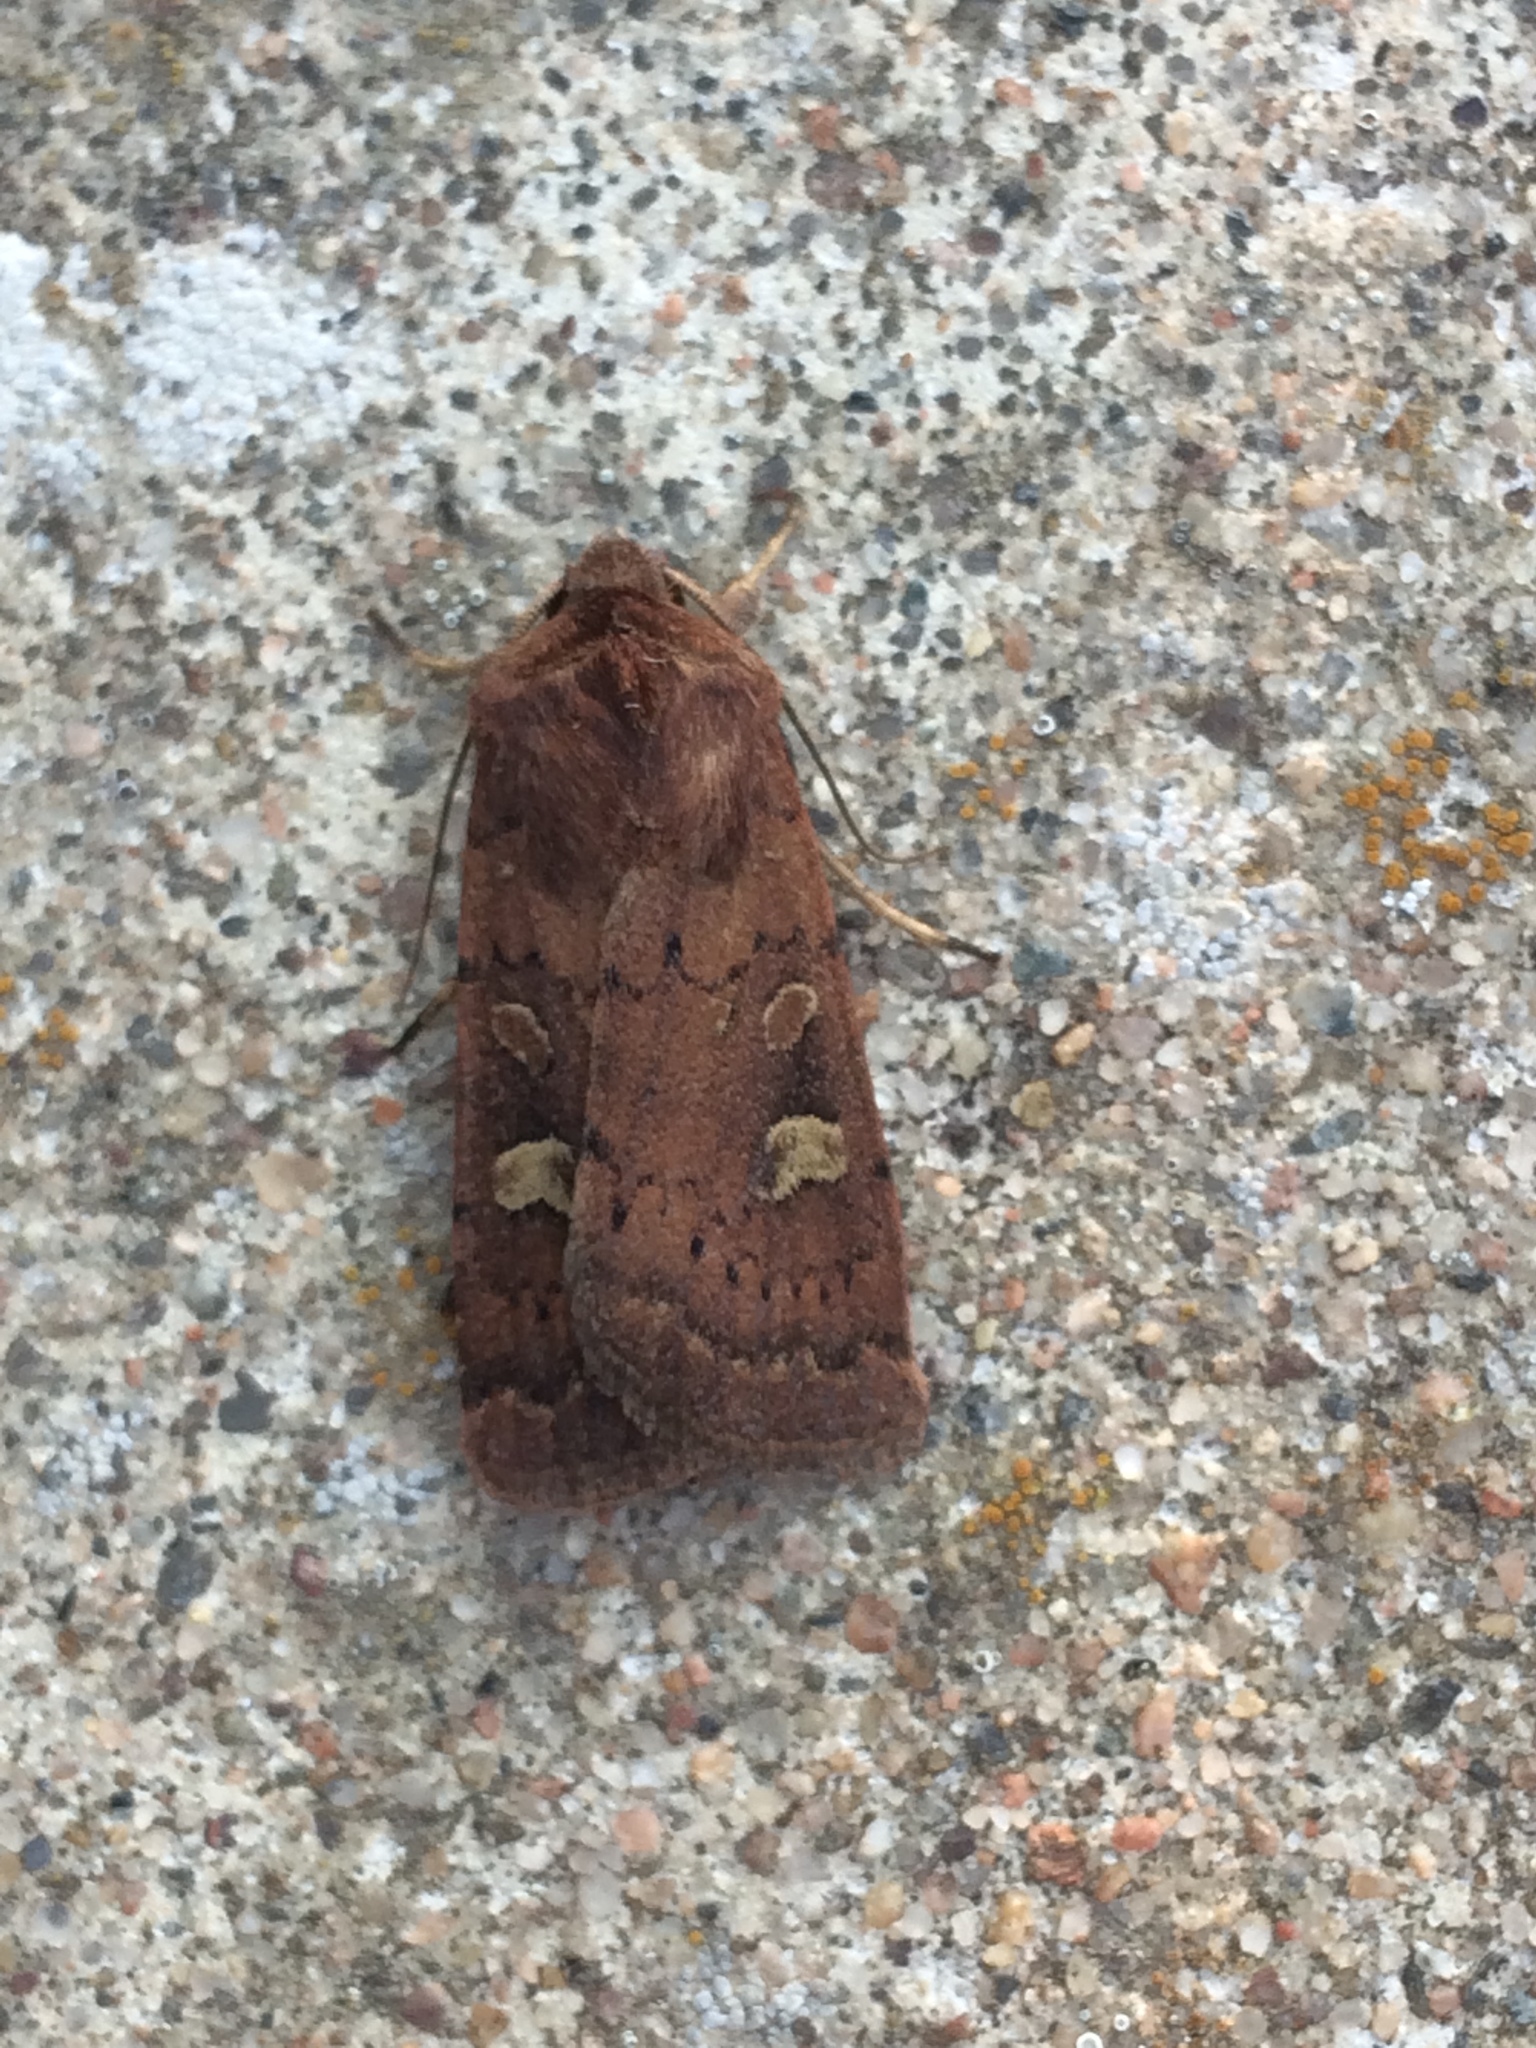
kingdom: Animalia
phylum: Arthropoda
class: Insecta
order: Lepidoptera
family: Noctuidae
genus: Xestia
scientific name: Xestia xanthographa
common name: Square-spot rustic
